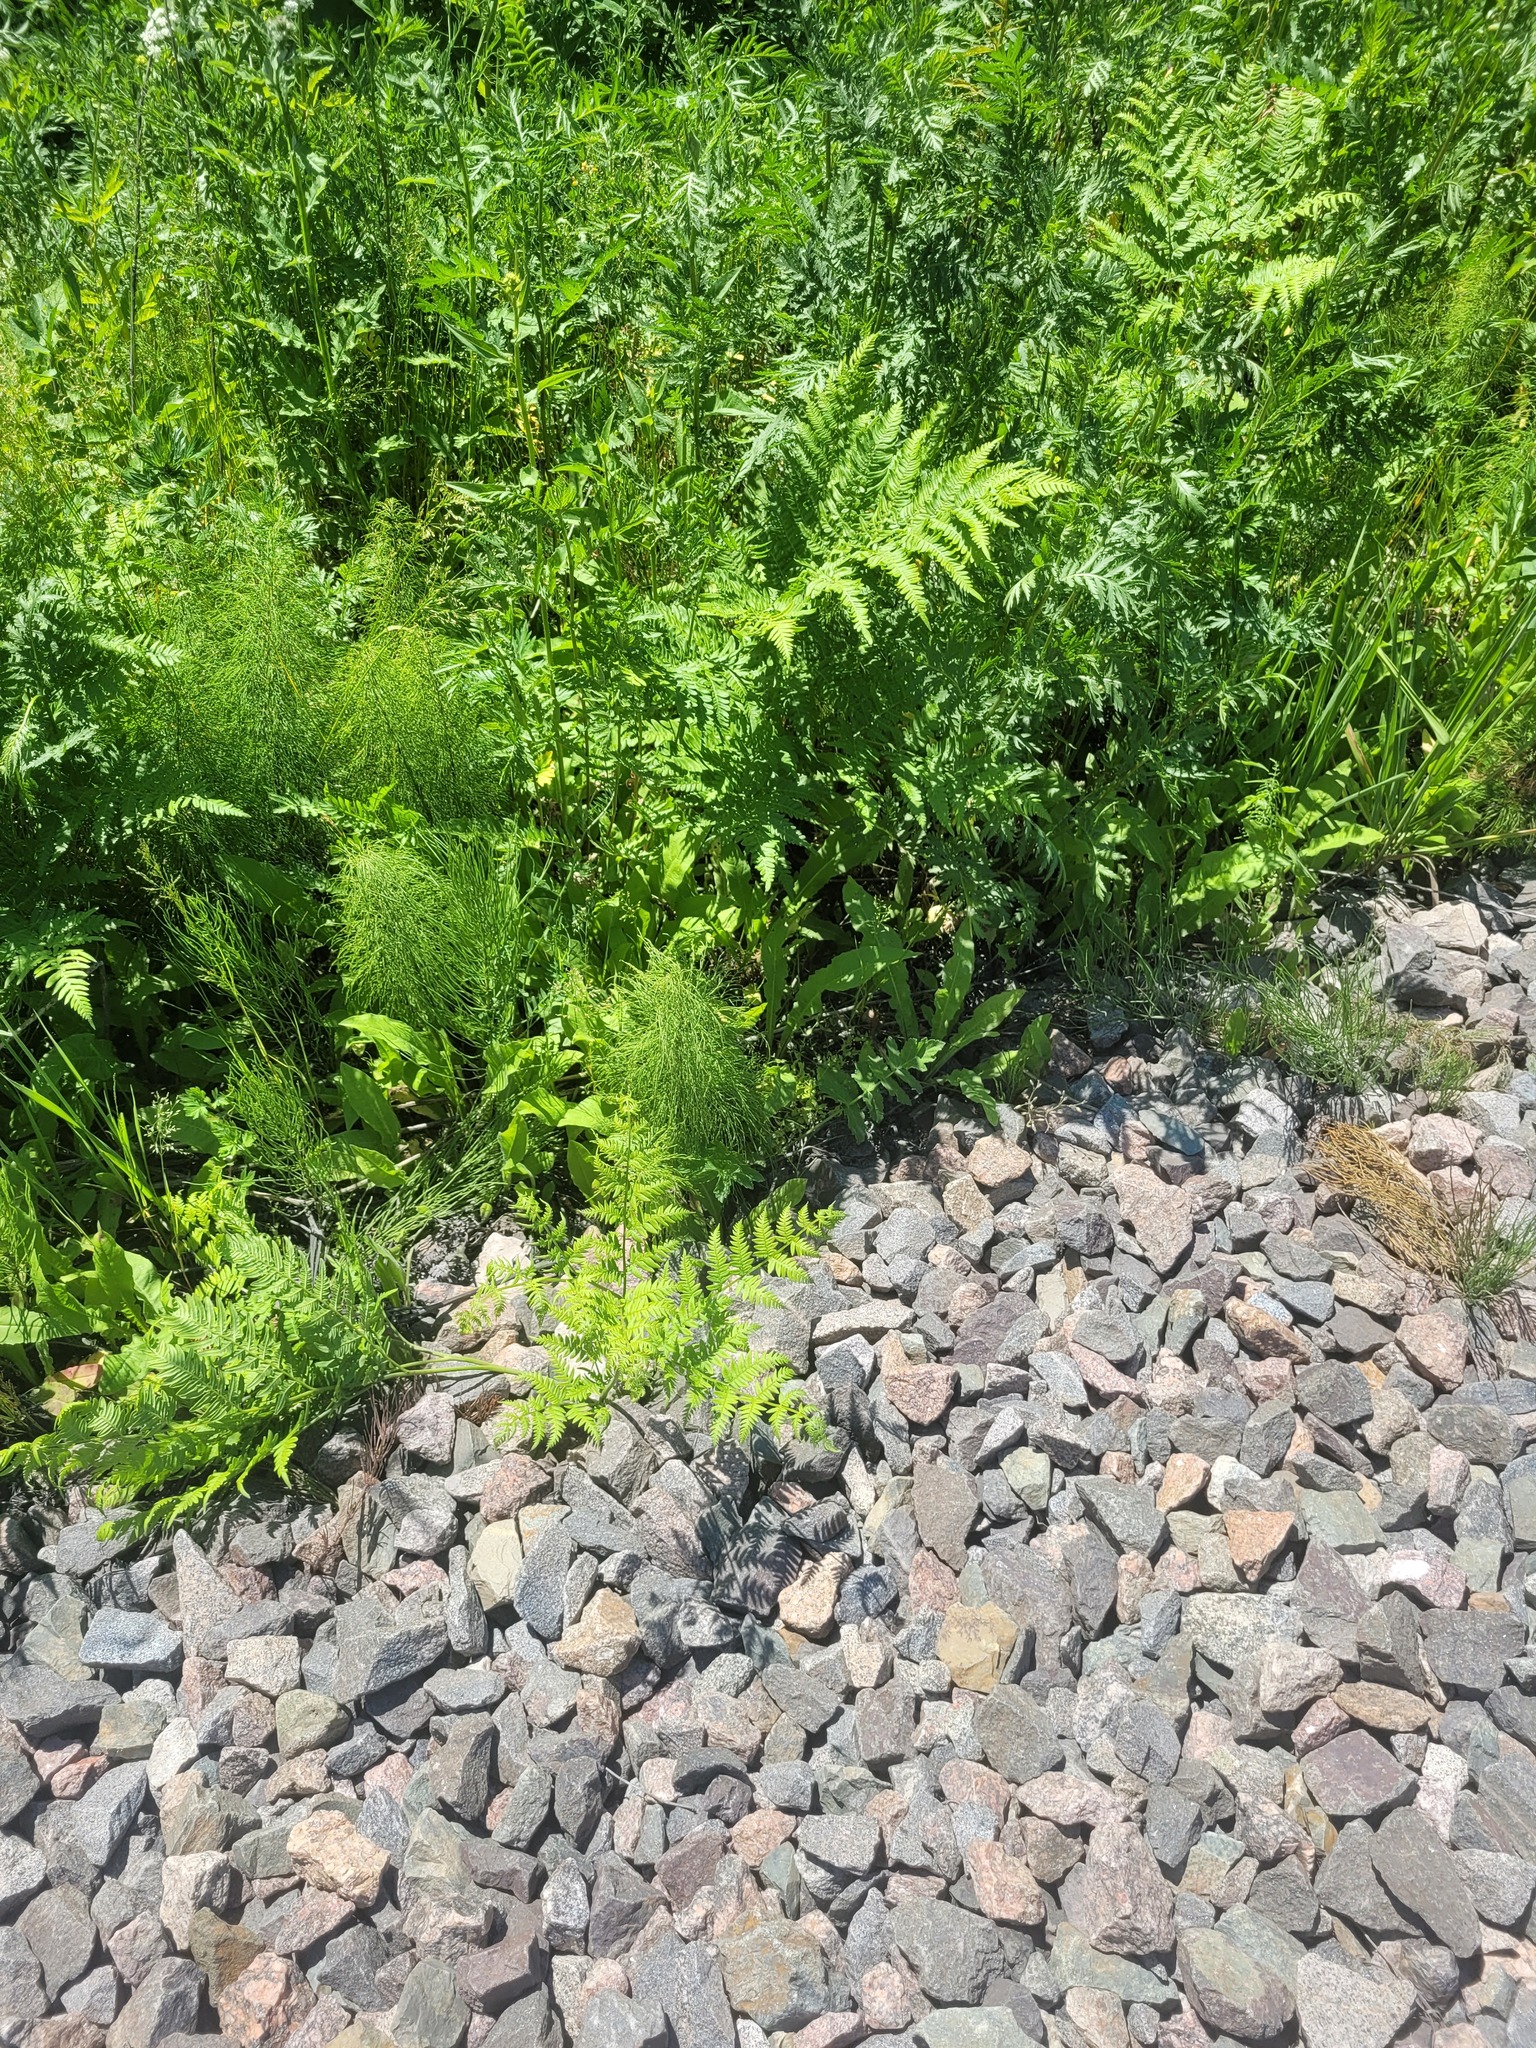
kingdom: Plantae
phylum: Tracheophyta
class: Polypodiopsida
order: Polypodiales
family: Dennstaedtiaceae
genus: Pteridium
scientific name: Pteridium aquilinum
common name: Bracken
